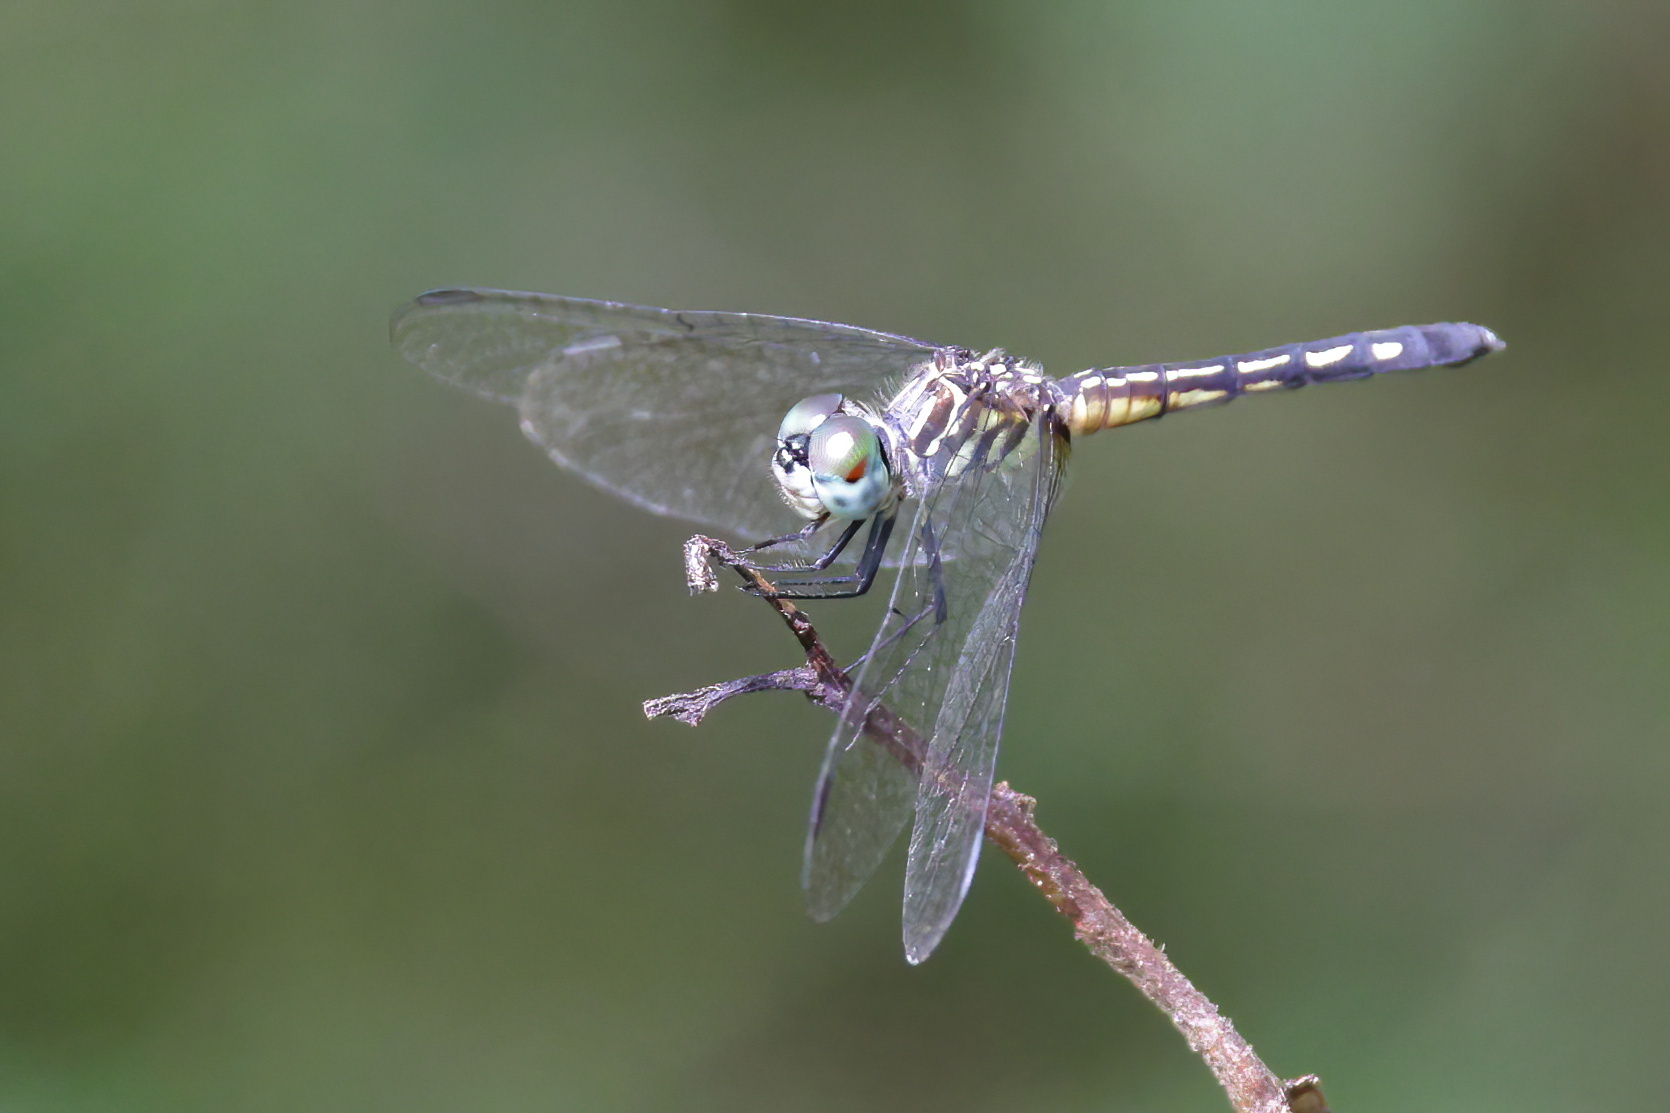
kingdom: Animalia
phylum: Arthropoda
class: Insecta
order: Odonata
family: Libellulidae
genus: Pachydiplax
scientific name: Pachydiplax longipennis
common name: Blue dasher
